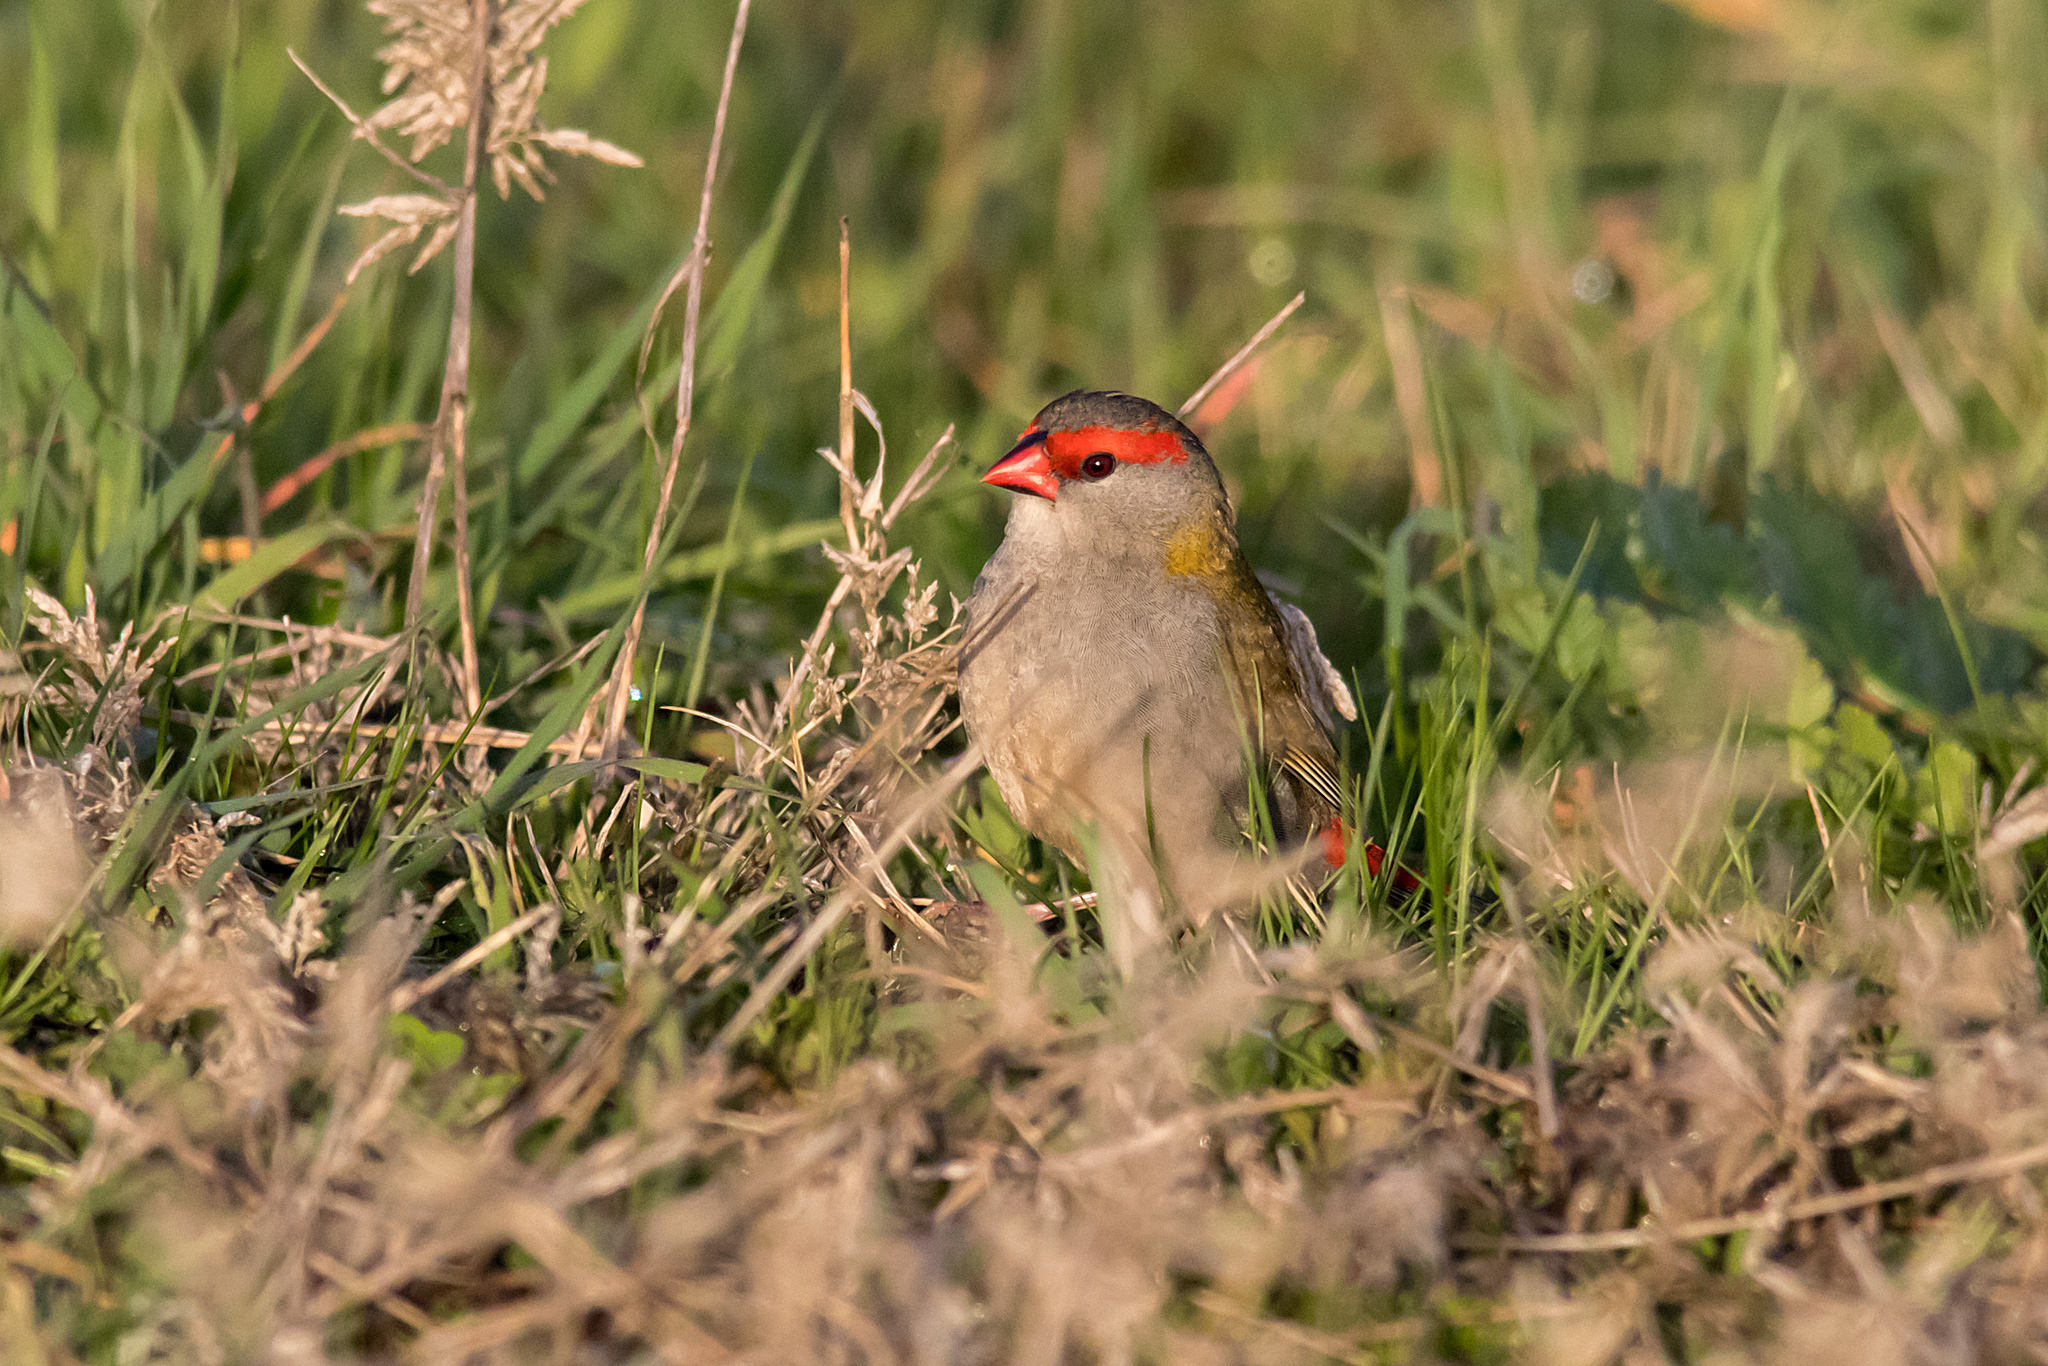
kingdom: Animalia
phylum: Chordata
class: Aves
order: Passeriformes
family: Estrildidae
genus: Neochmia
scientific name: Neochmia temporalis
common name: Red-browed finch
